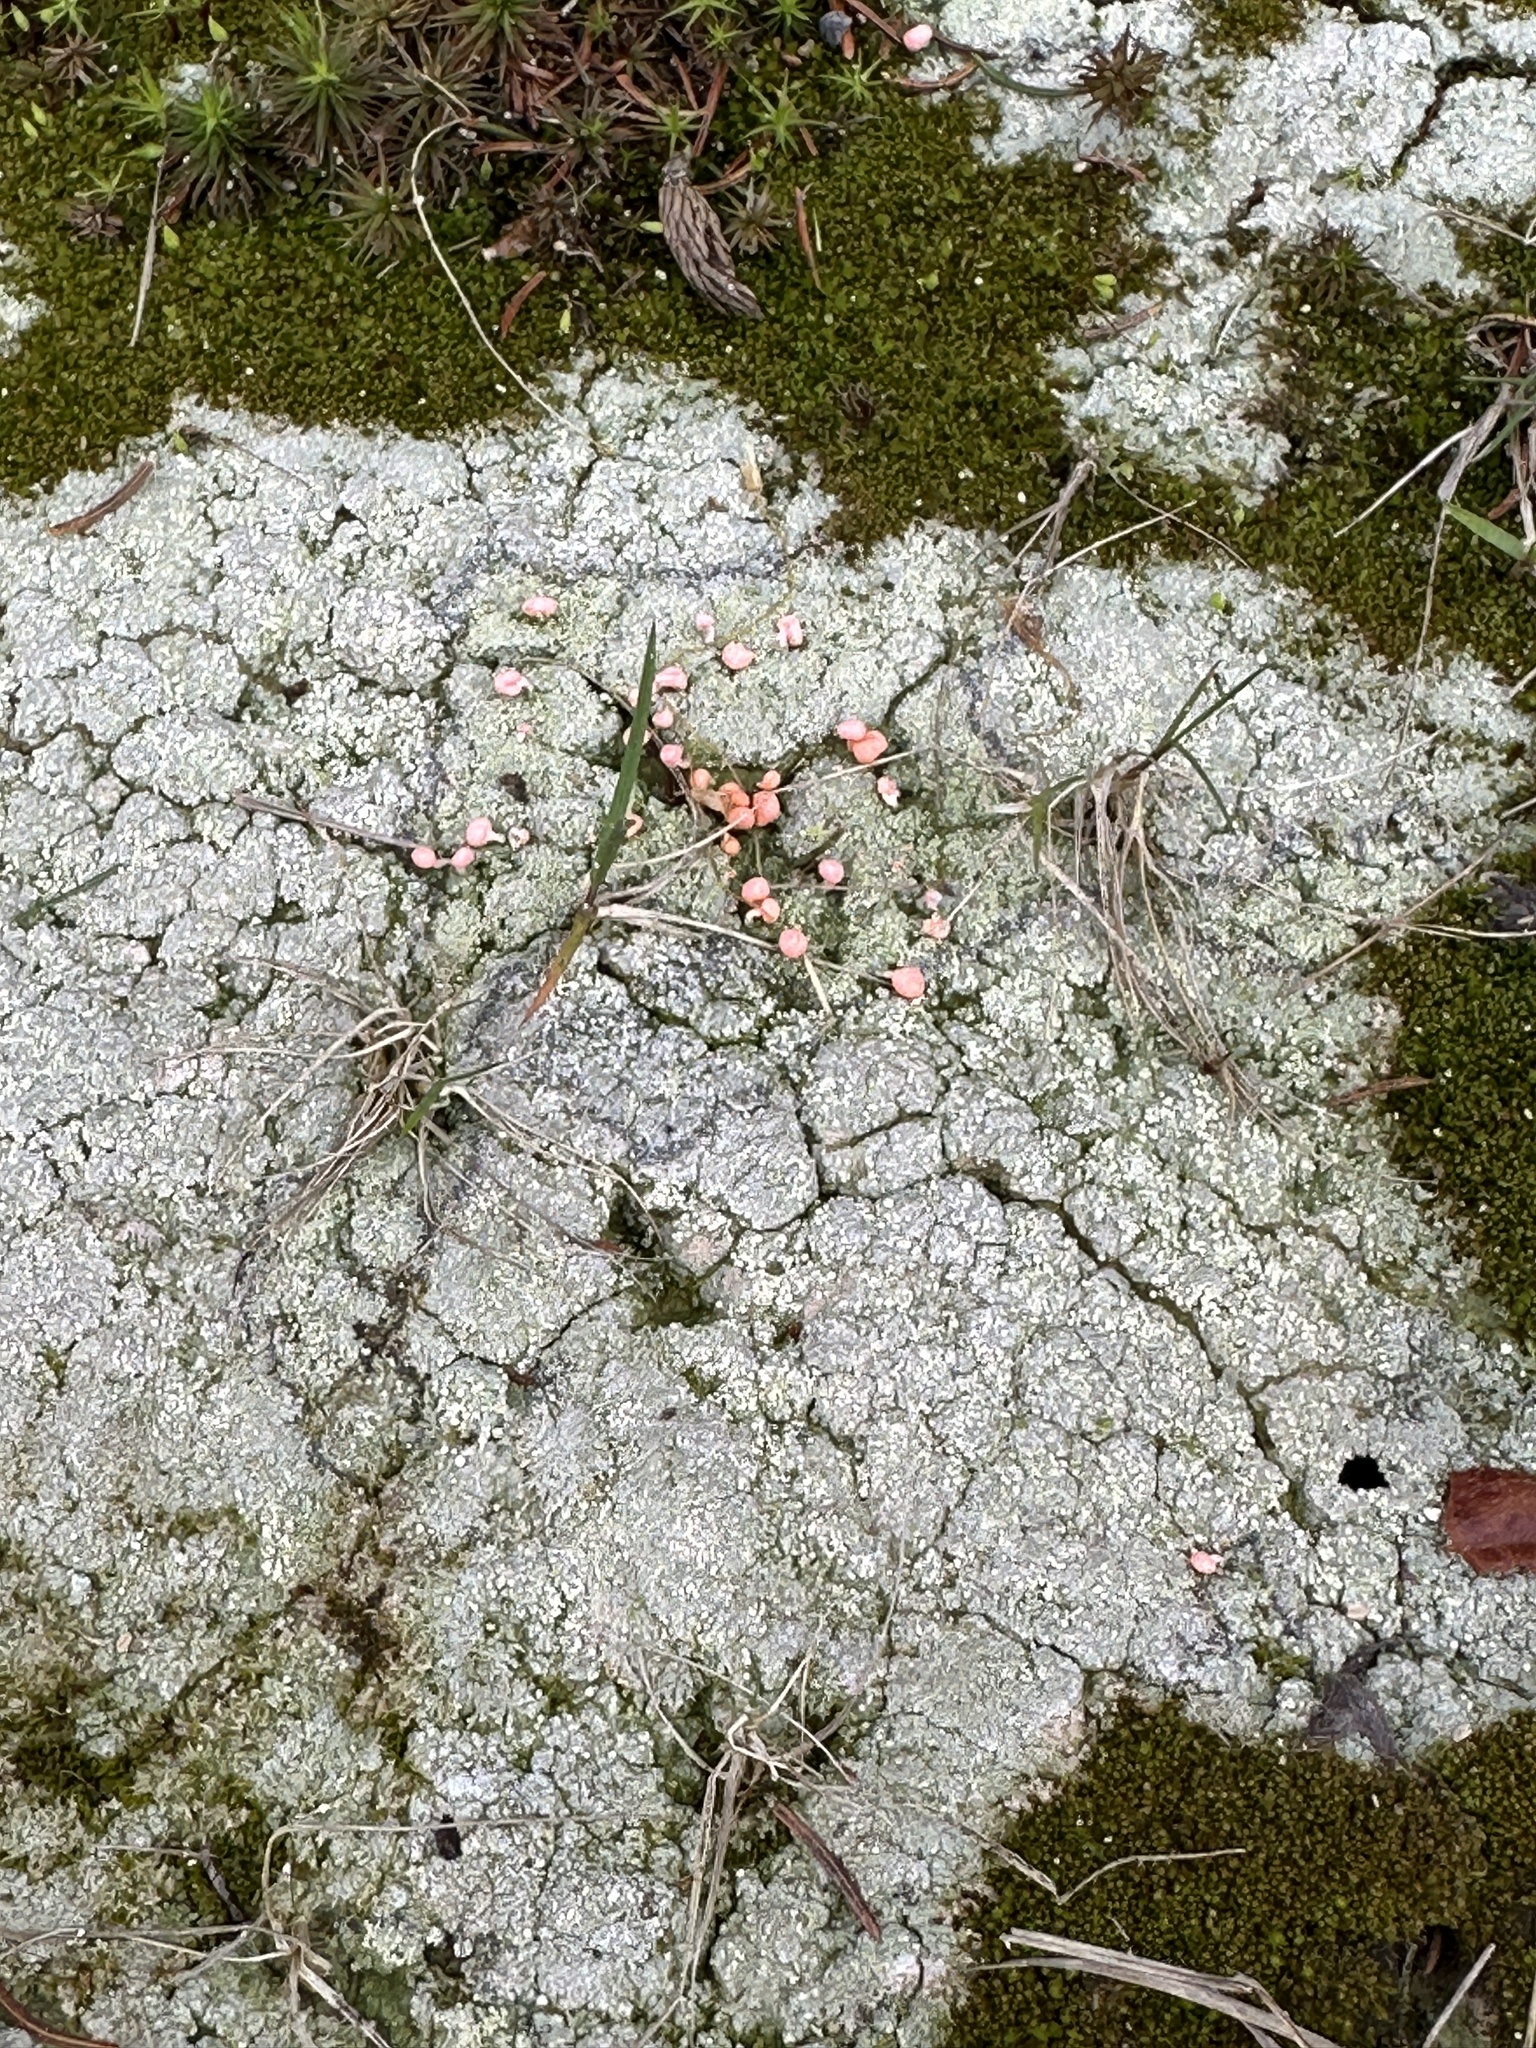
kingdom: Fungi
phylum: Ascomycota
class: Lecanoromycetes
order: Pertusariales
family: Icmadophilaceae
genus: Dibaeis
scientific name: Dibaeis baeomyces
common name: Pink earth lichen
